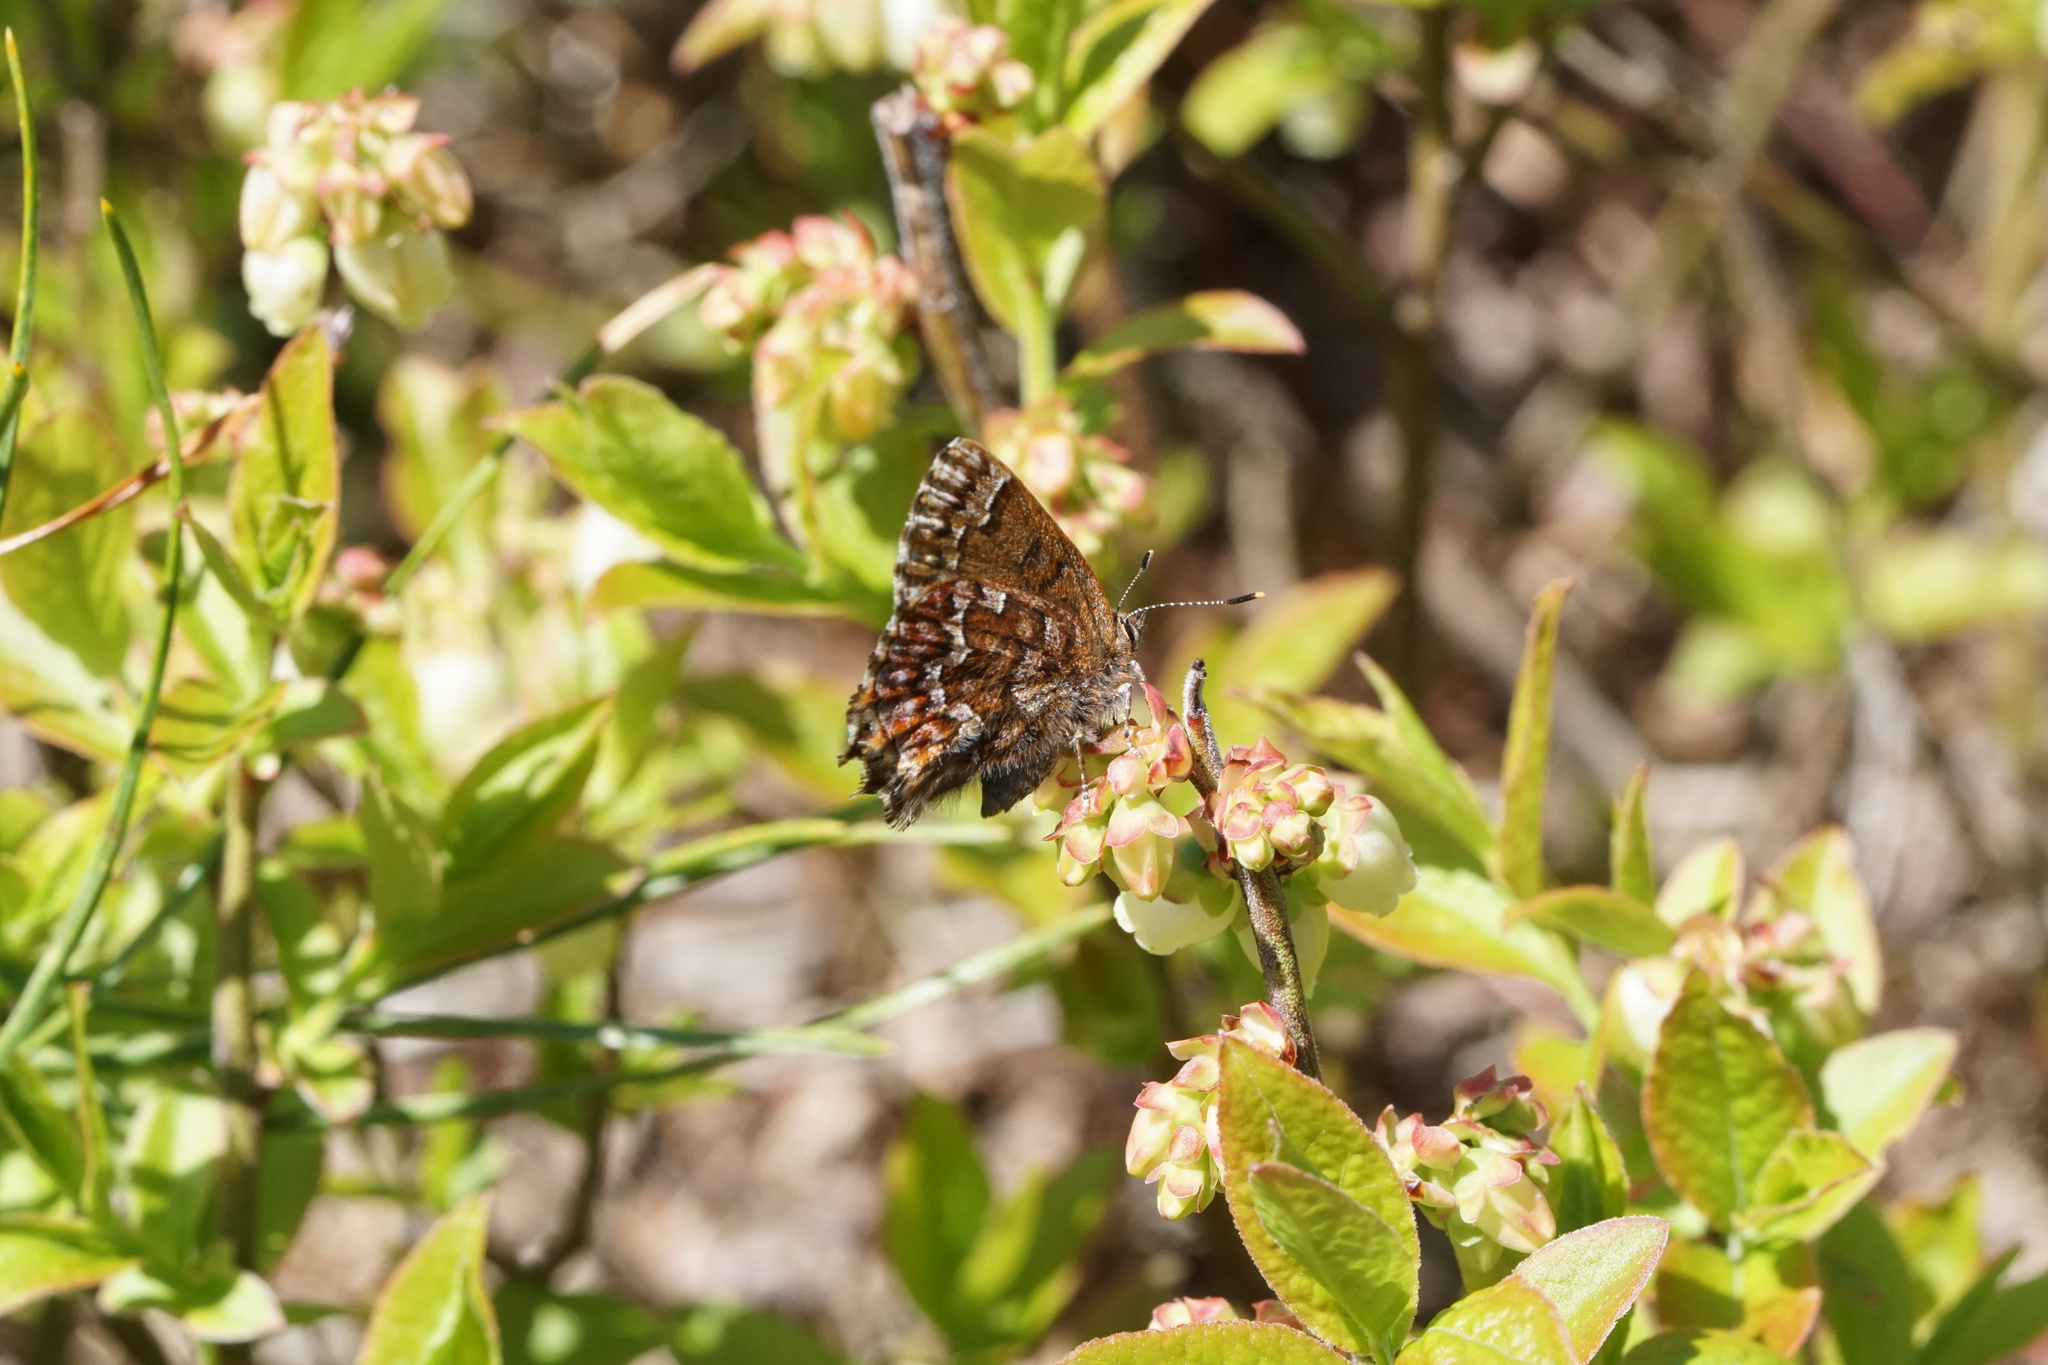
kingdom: Animalia
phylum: Arthropoda
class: Insecta
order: Lepidoptera
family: Lycaenidae
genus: Incisalia
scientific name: Incisalia niphon
